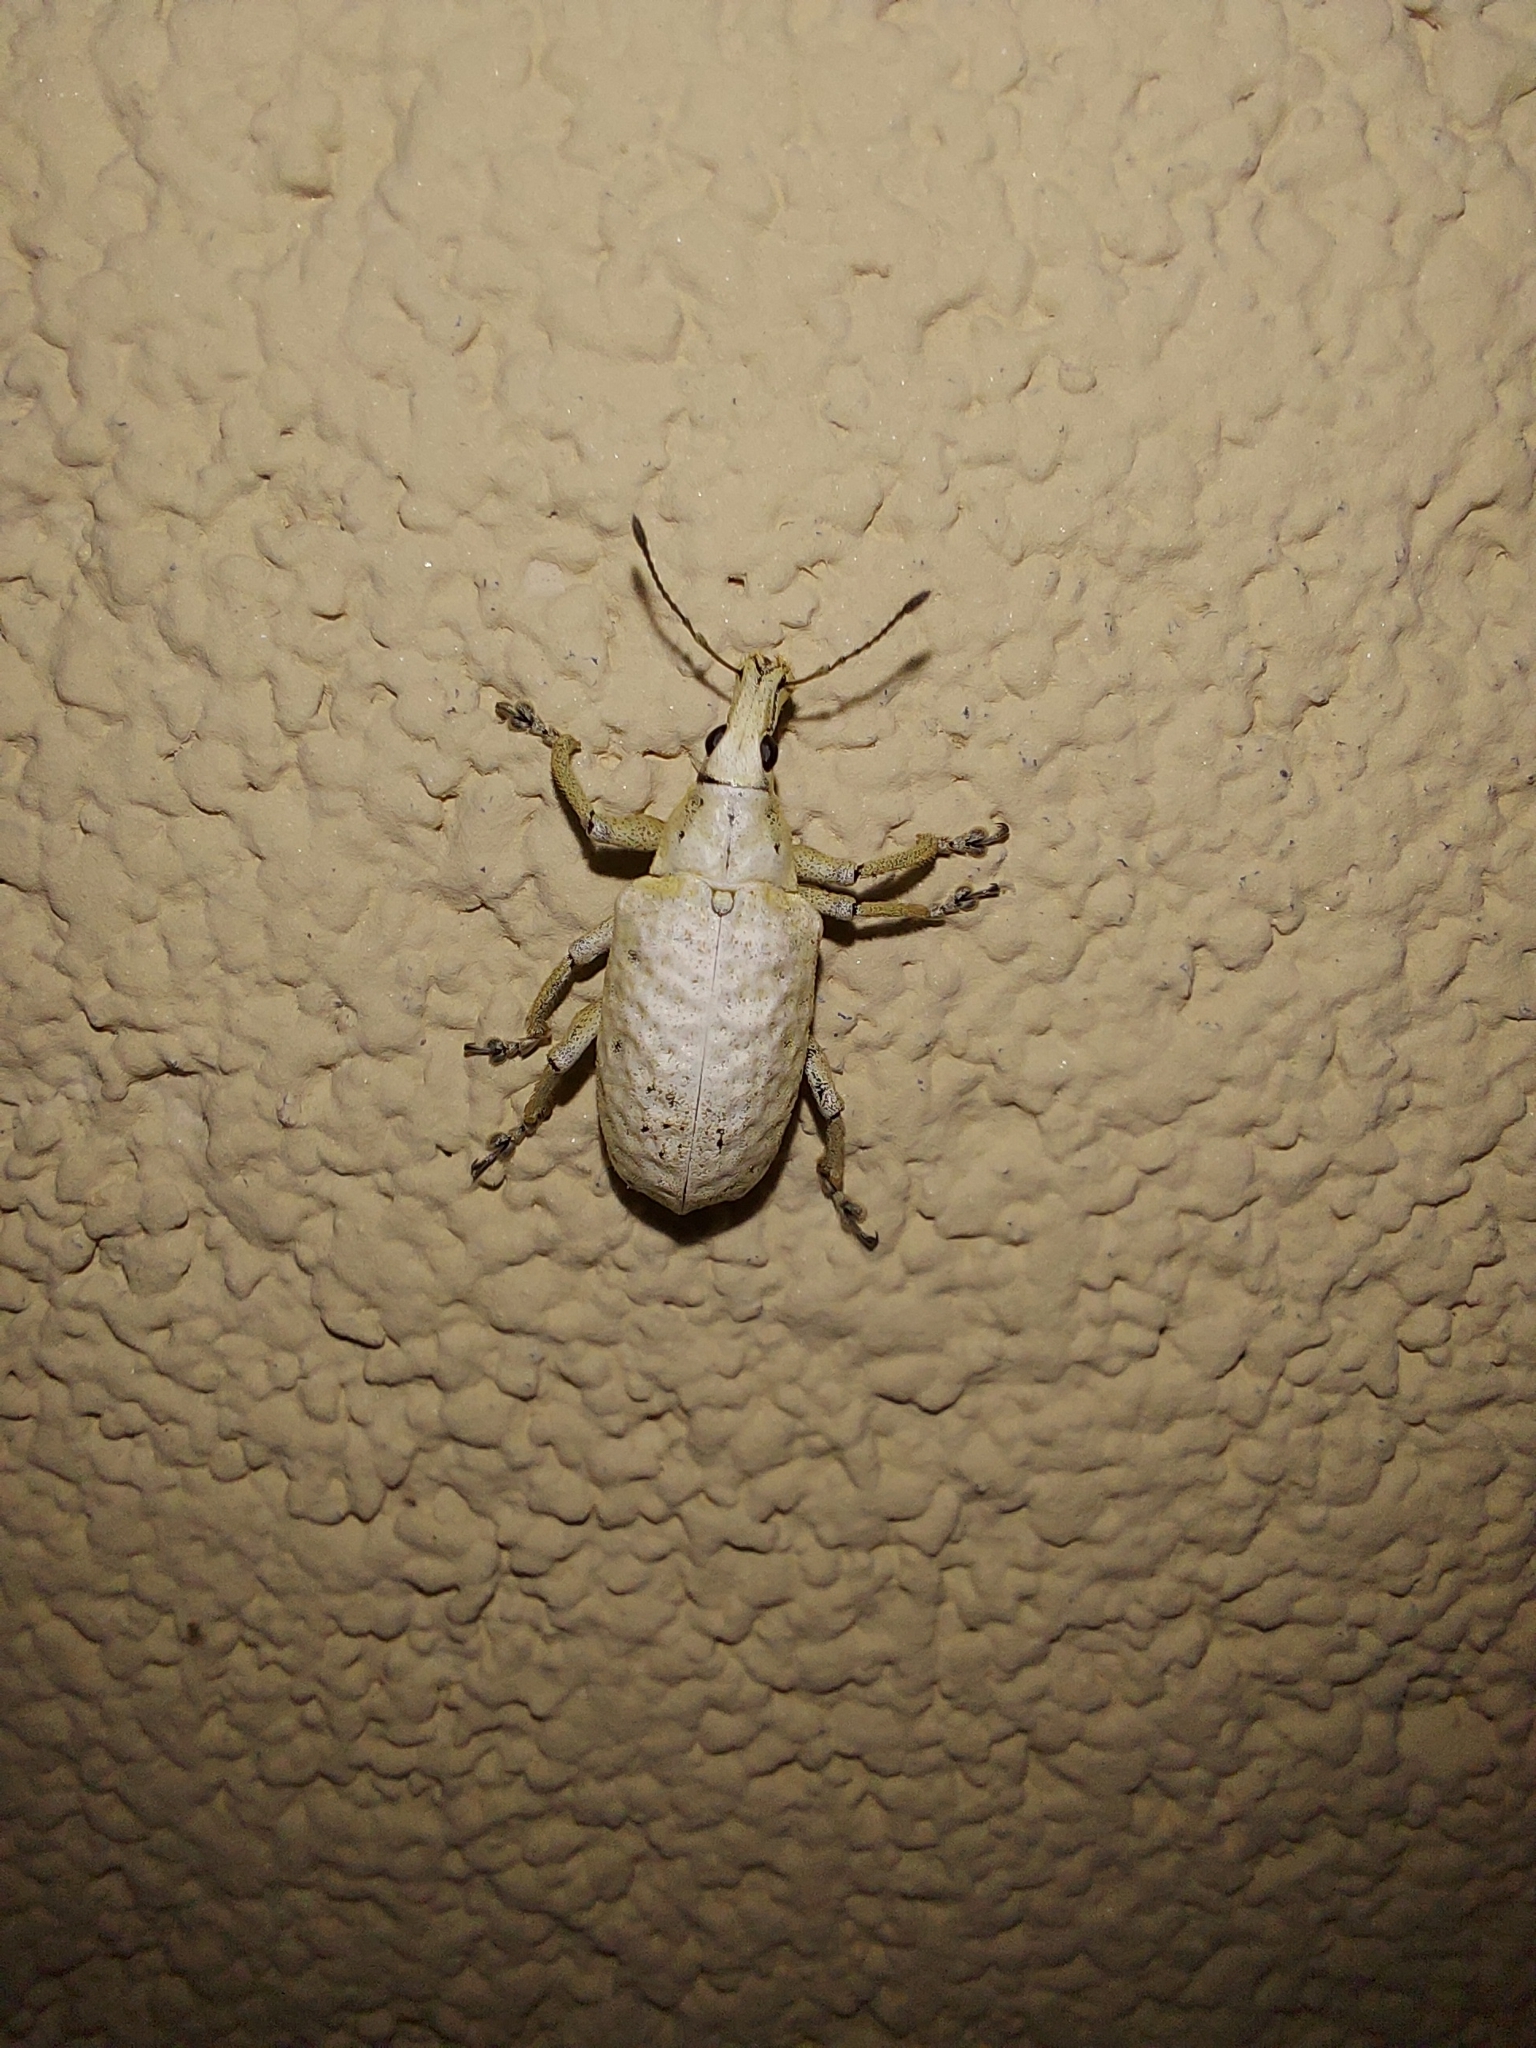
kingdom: Animalia
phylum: Arthropoda
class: Insecta
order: Coleoptera
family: Curculionidae
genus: Phaops
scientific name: Phaops albugo
